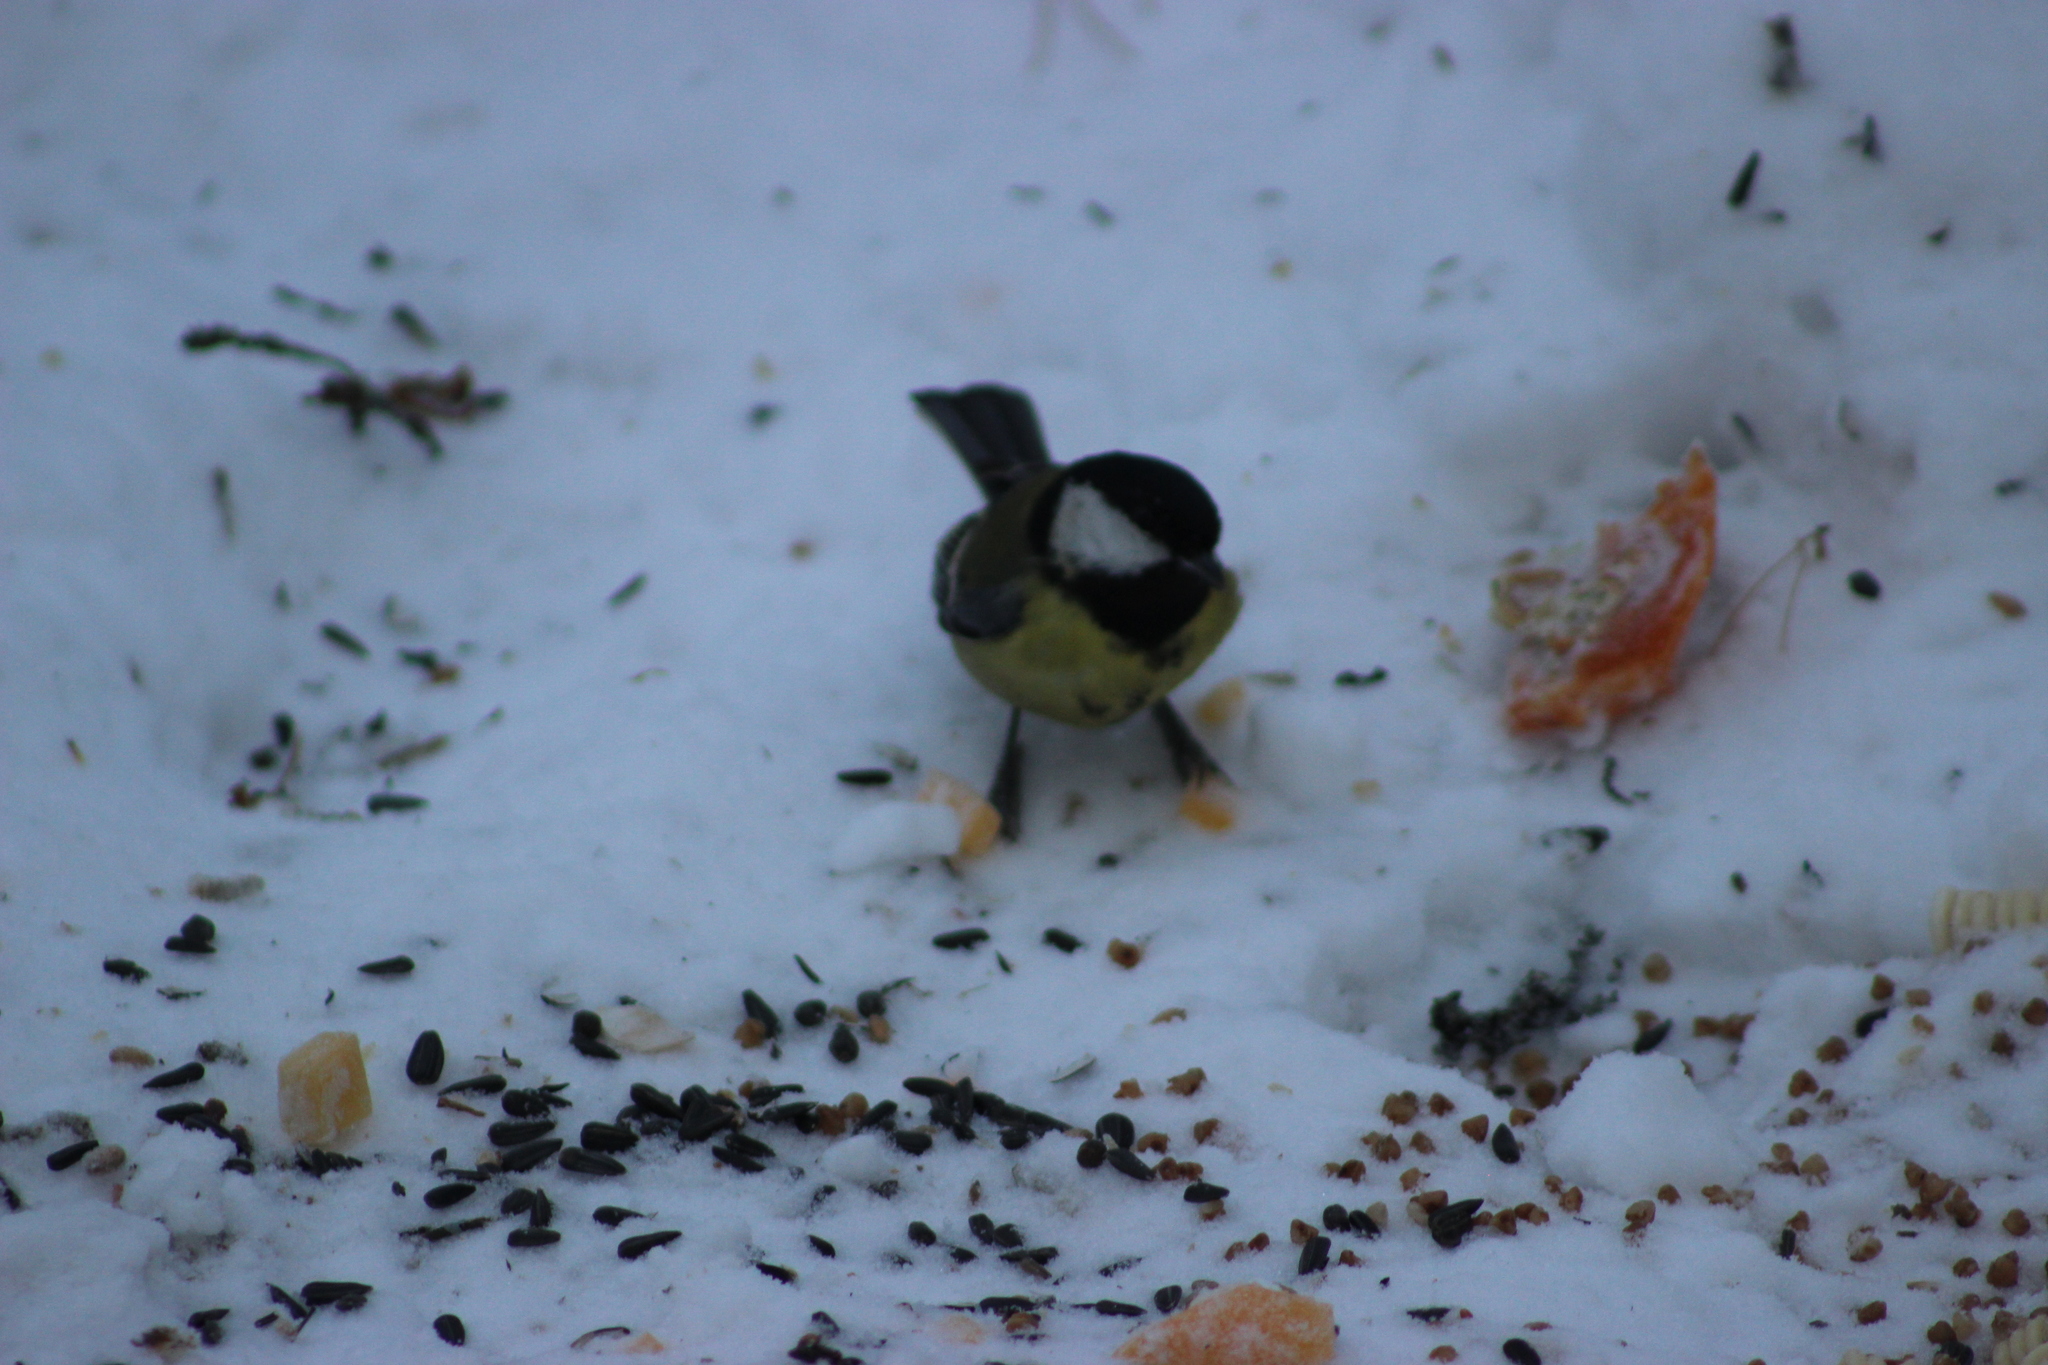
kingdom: Animalia
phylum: Chordata
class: Aves
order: Passeriformes
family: Paridae
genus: Parus
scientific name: Parus major
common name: Great tit
